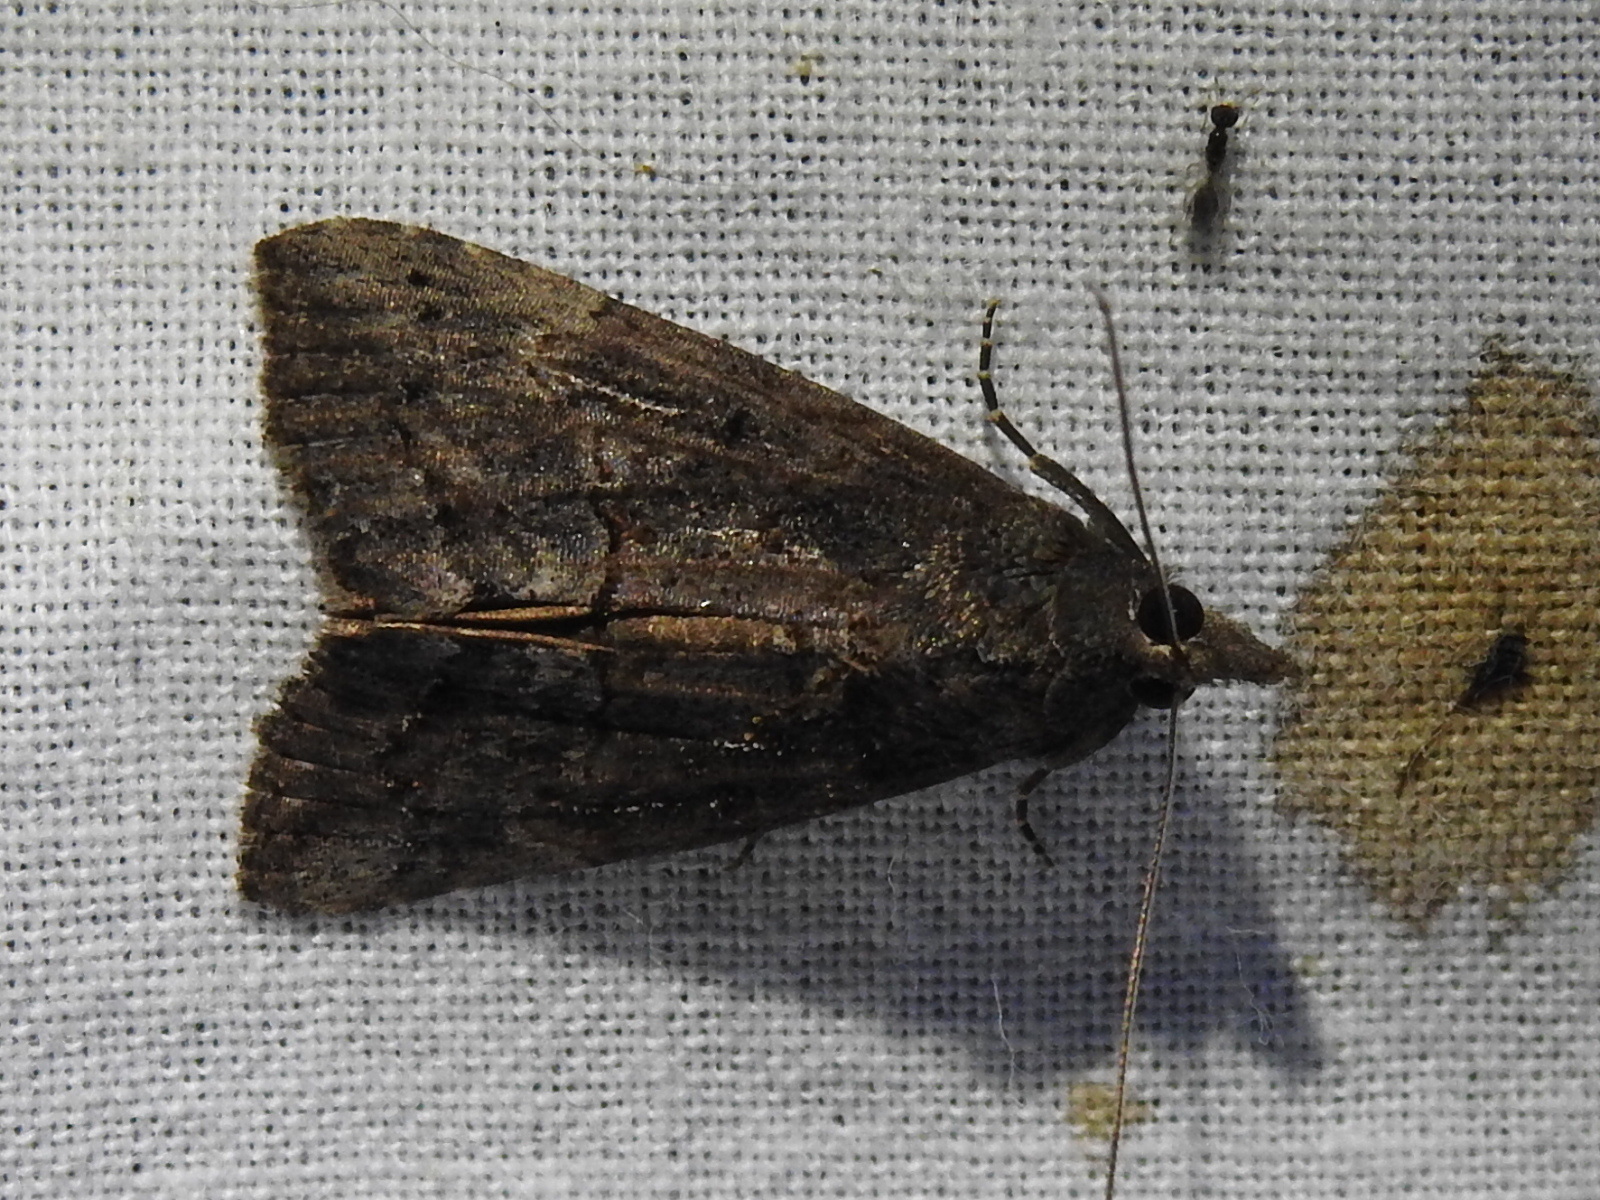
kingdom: Animalia
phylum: Arthropoda
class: Insecta
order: Lepidoptera
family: Erebidae
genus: Hypena
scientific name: Hypena scabra
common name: Green cloverworm
